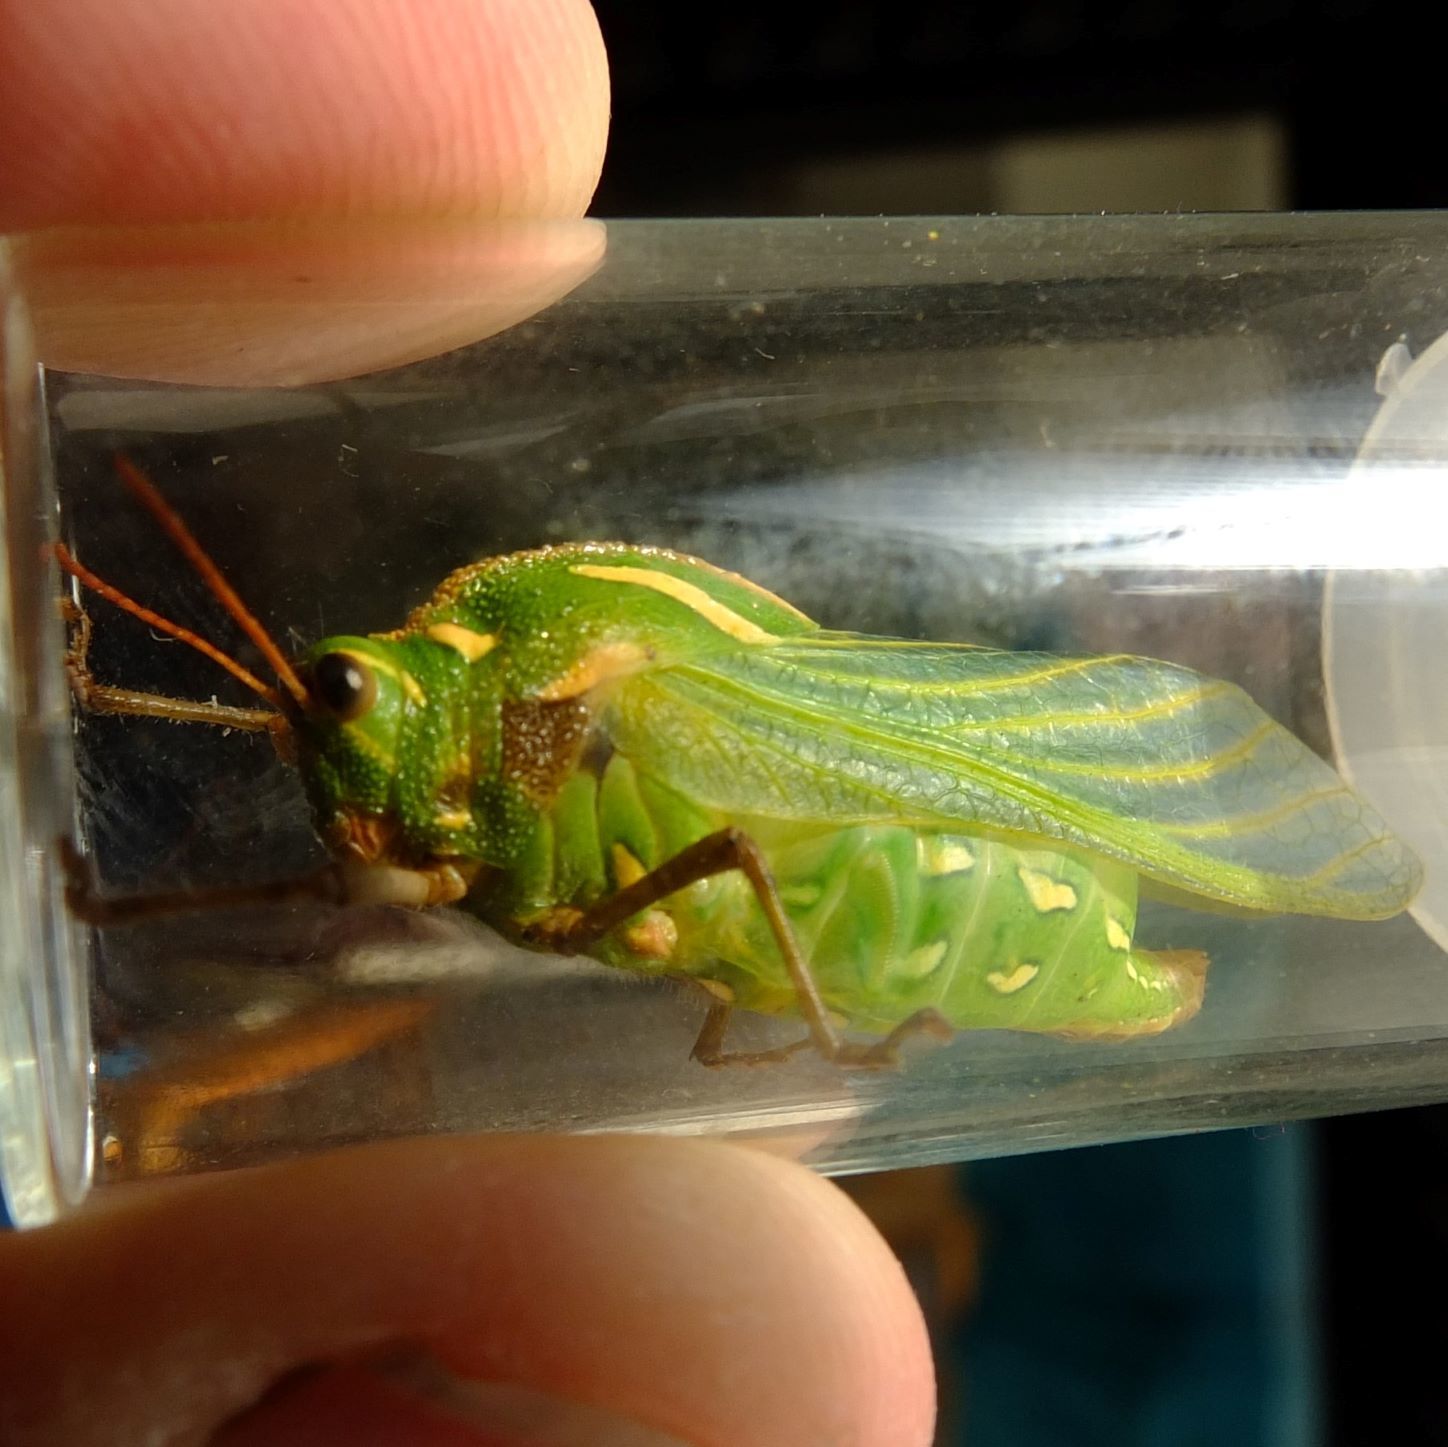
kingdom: Animalia
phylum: Arthropoda
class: Insecta
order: Orthoptera
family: Pneumoridae
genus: Peringueyacris
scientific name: Peringueyacris namaqua
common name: Bladder grasshopper
